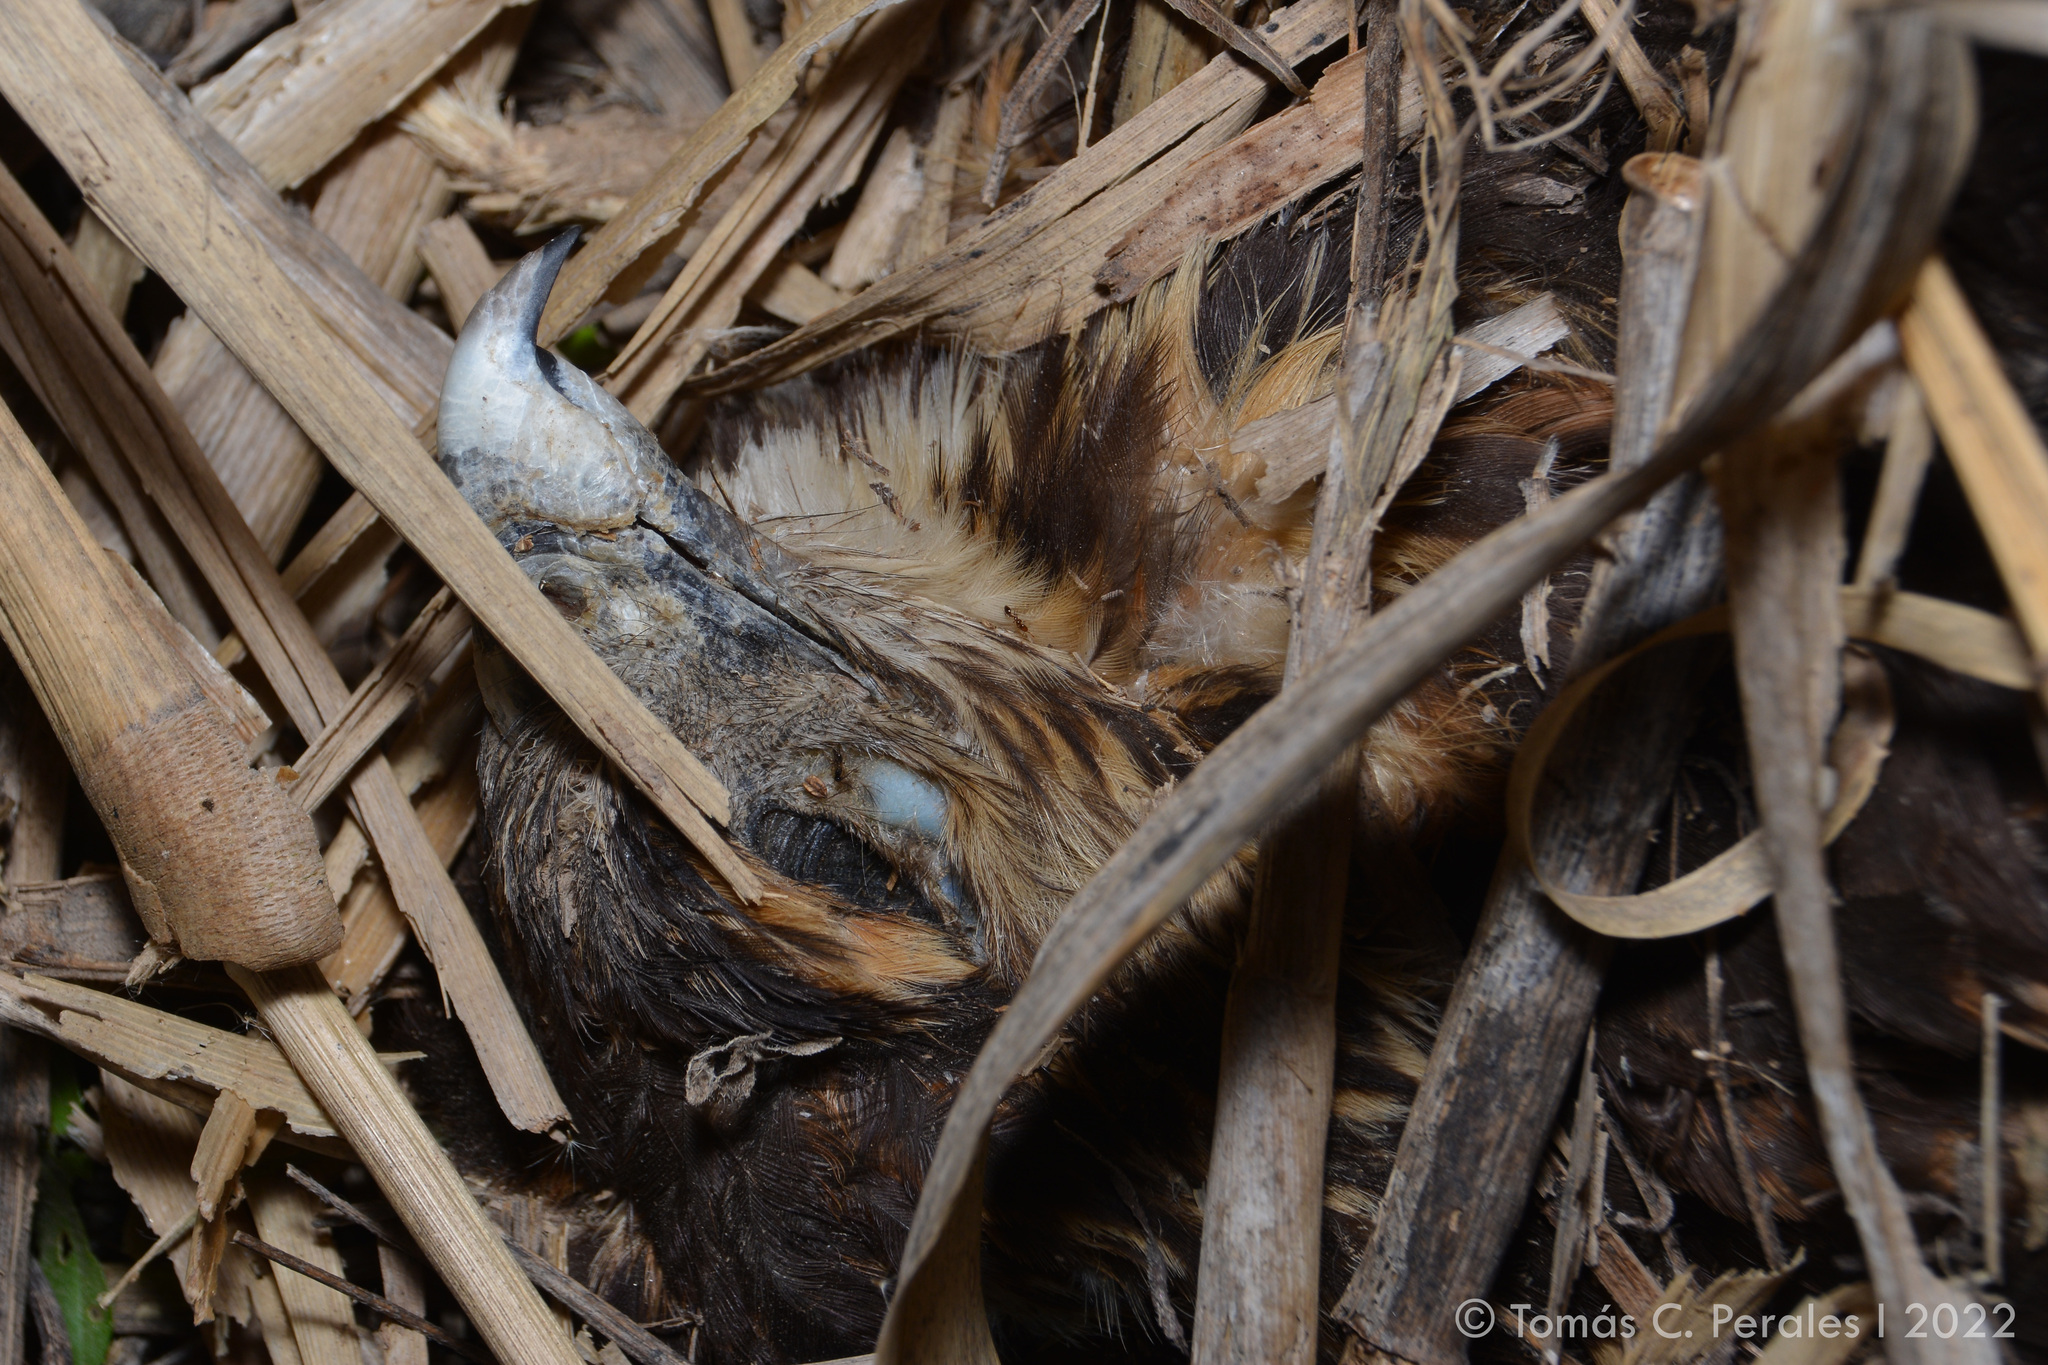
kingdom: Animalia
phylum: Chordata
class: Aves
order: Accipitriformes
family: Accipitridae
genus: Rostrhamus
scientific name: Rostrhamus sociabilis
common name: Snail kite
